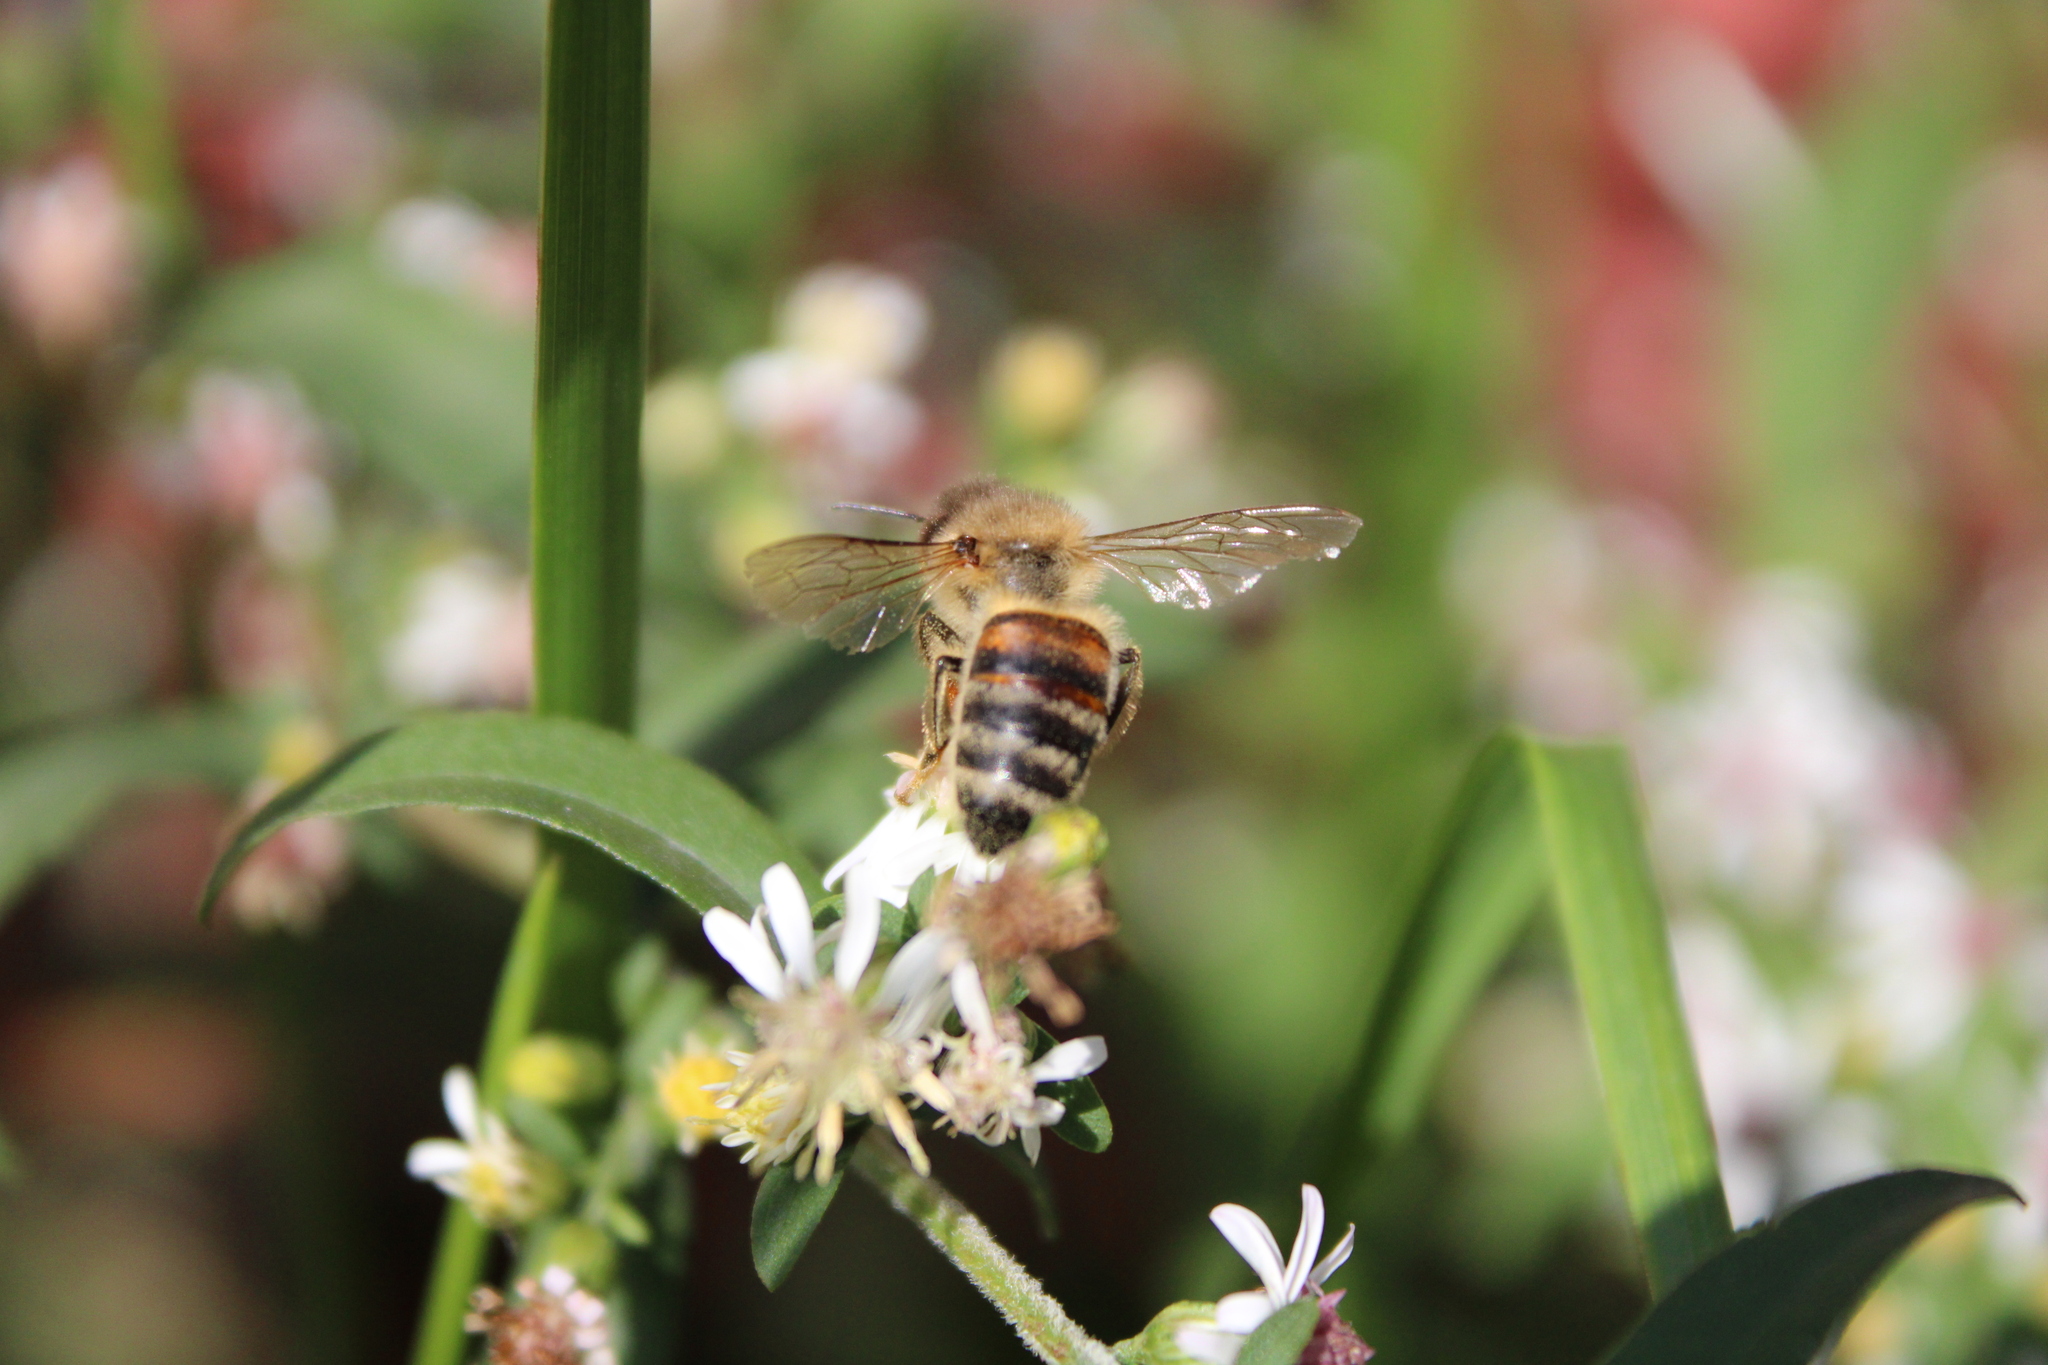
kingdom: Animalia
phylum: Arthropoda
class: Insecta
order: Hymenoptera
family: Apidae
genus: Apis
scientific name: Apis mellifera
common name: Honey bee
